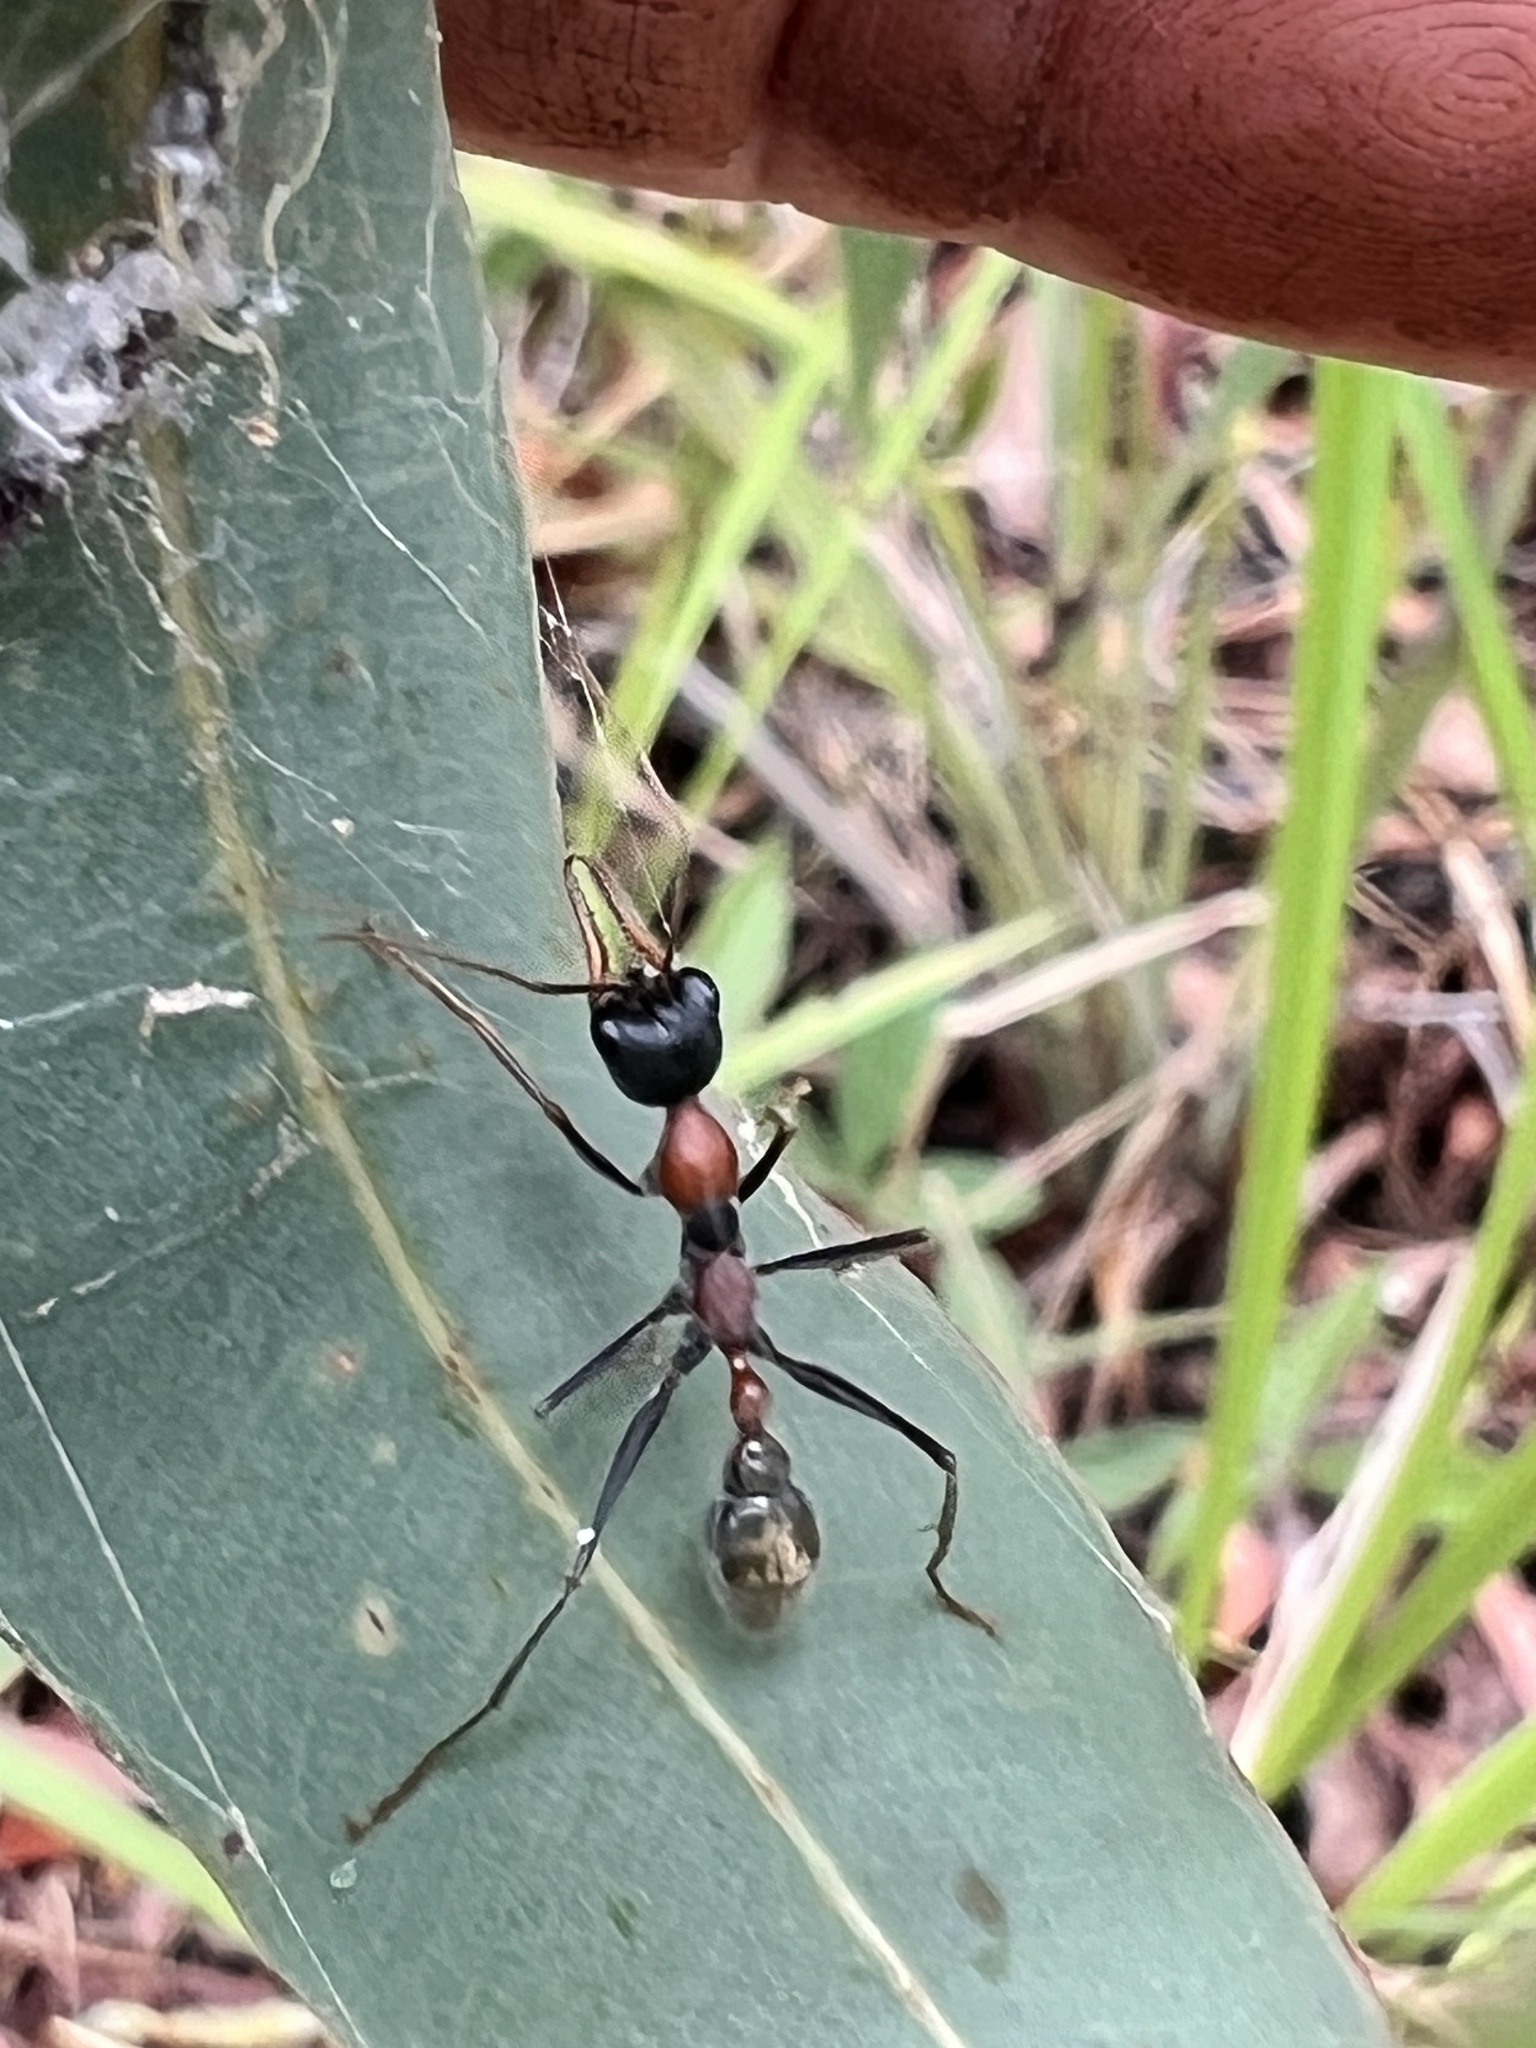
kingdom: Animalia
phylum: Arthropoda
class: Insecta
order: Hymenoptera
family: Formicidae
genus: Myrmecia
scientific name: Myrmecia nigrocincta
